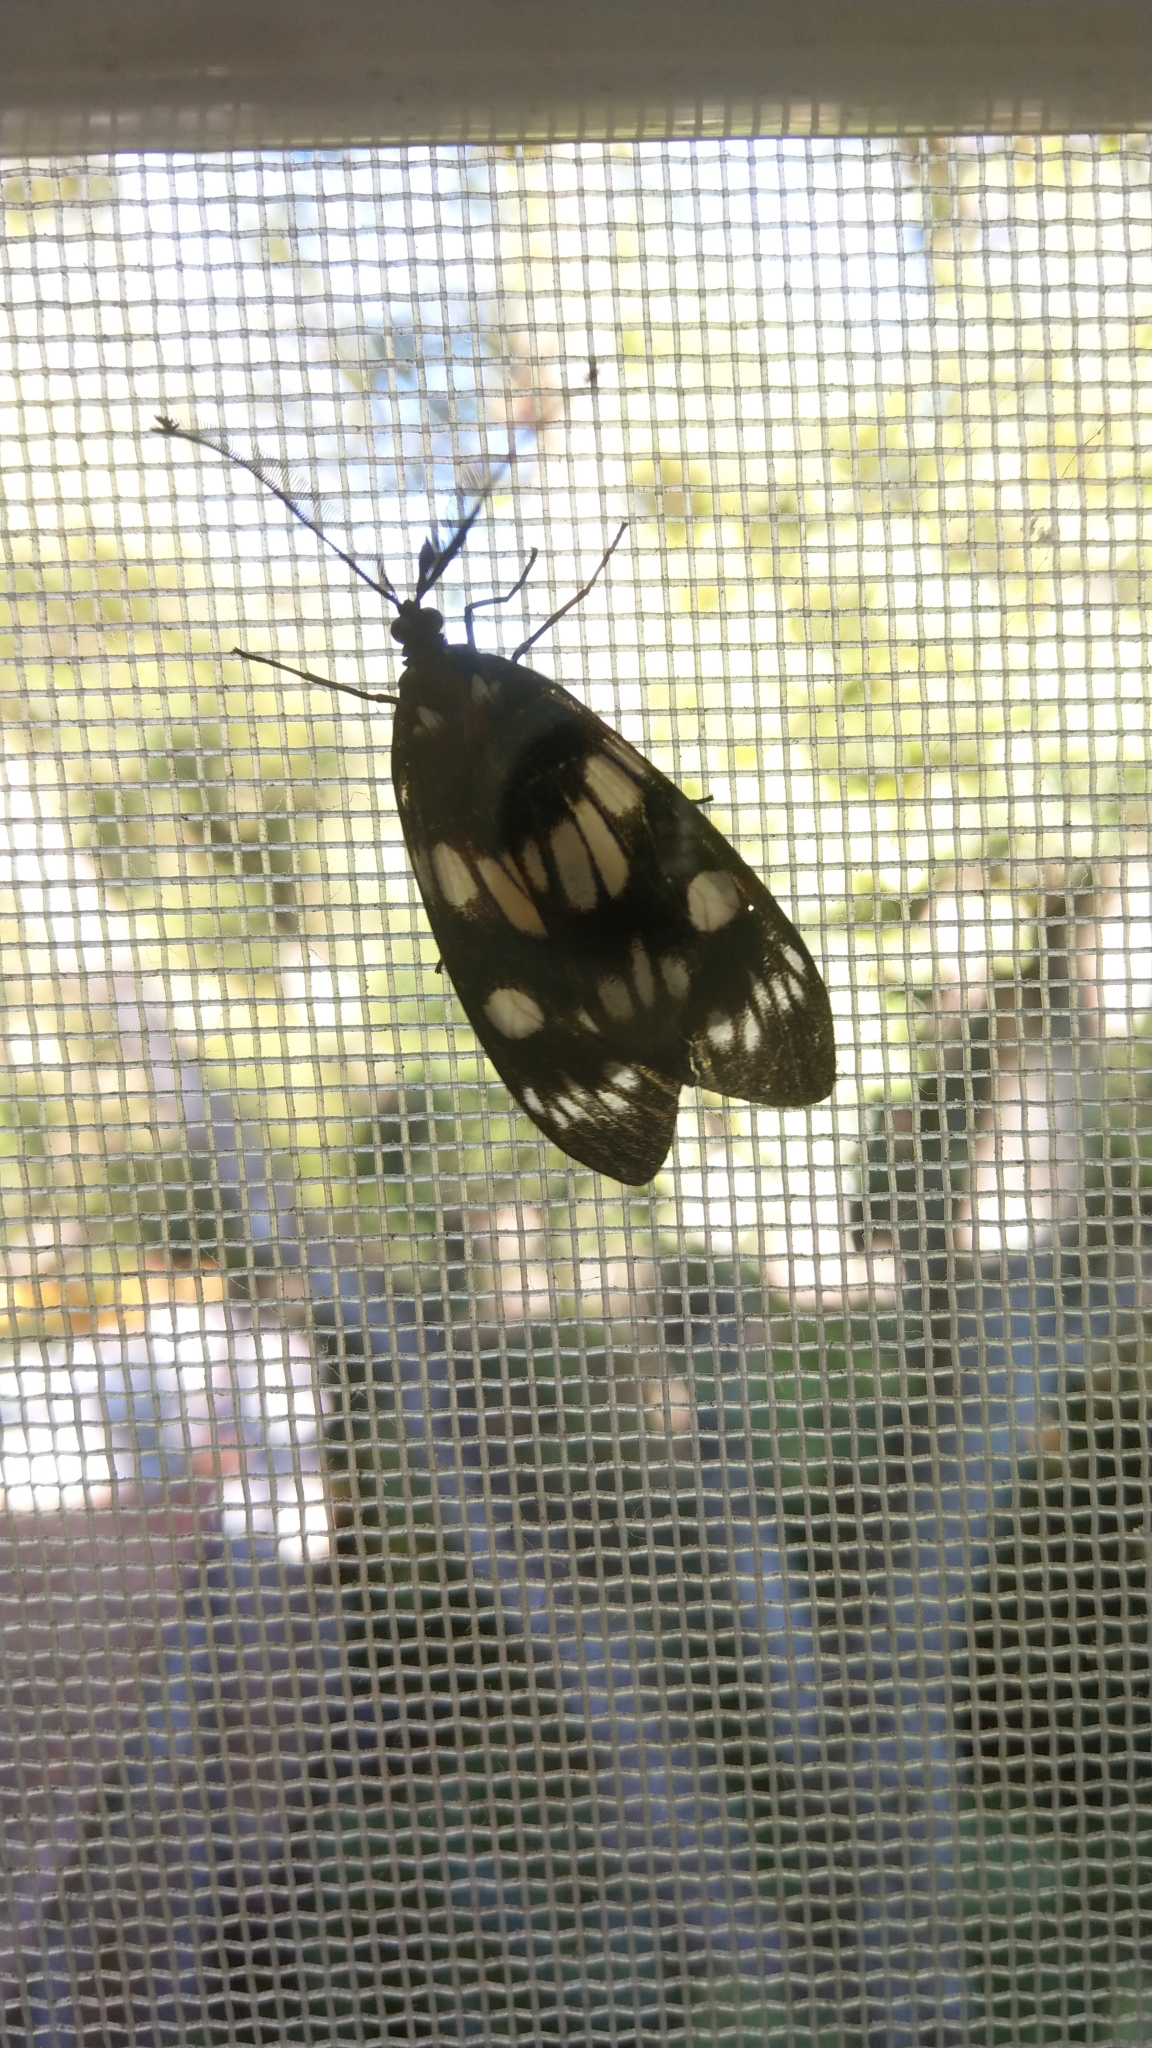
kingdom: Animalia
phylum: Arthropoda
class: Insecta
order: Lepidoptera
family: Zygaenidae
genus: Eterusia
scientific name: Eterusia aedea
